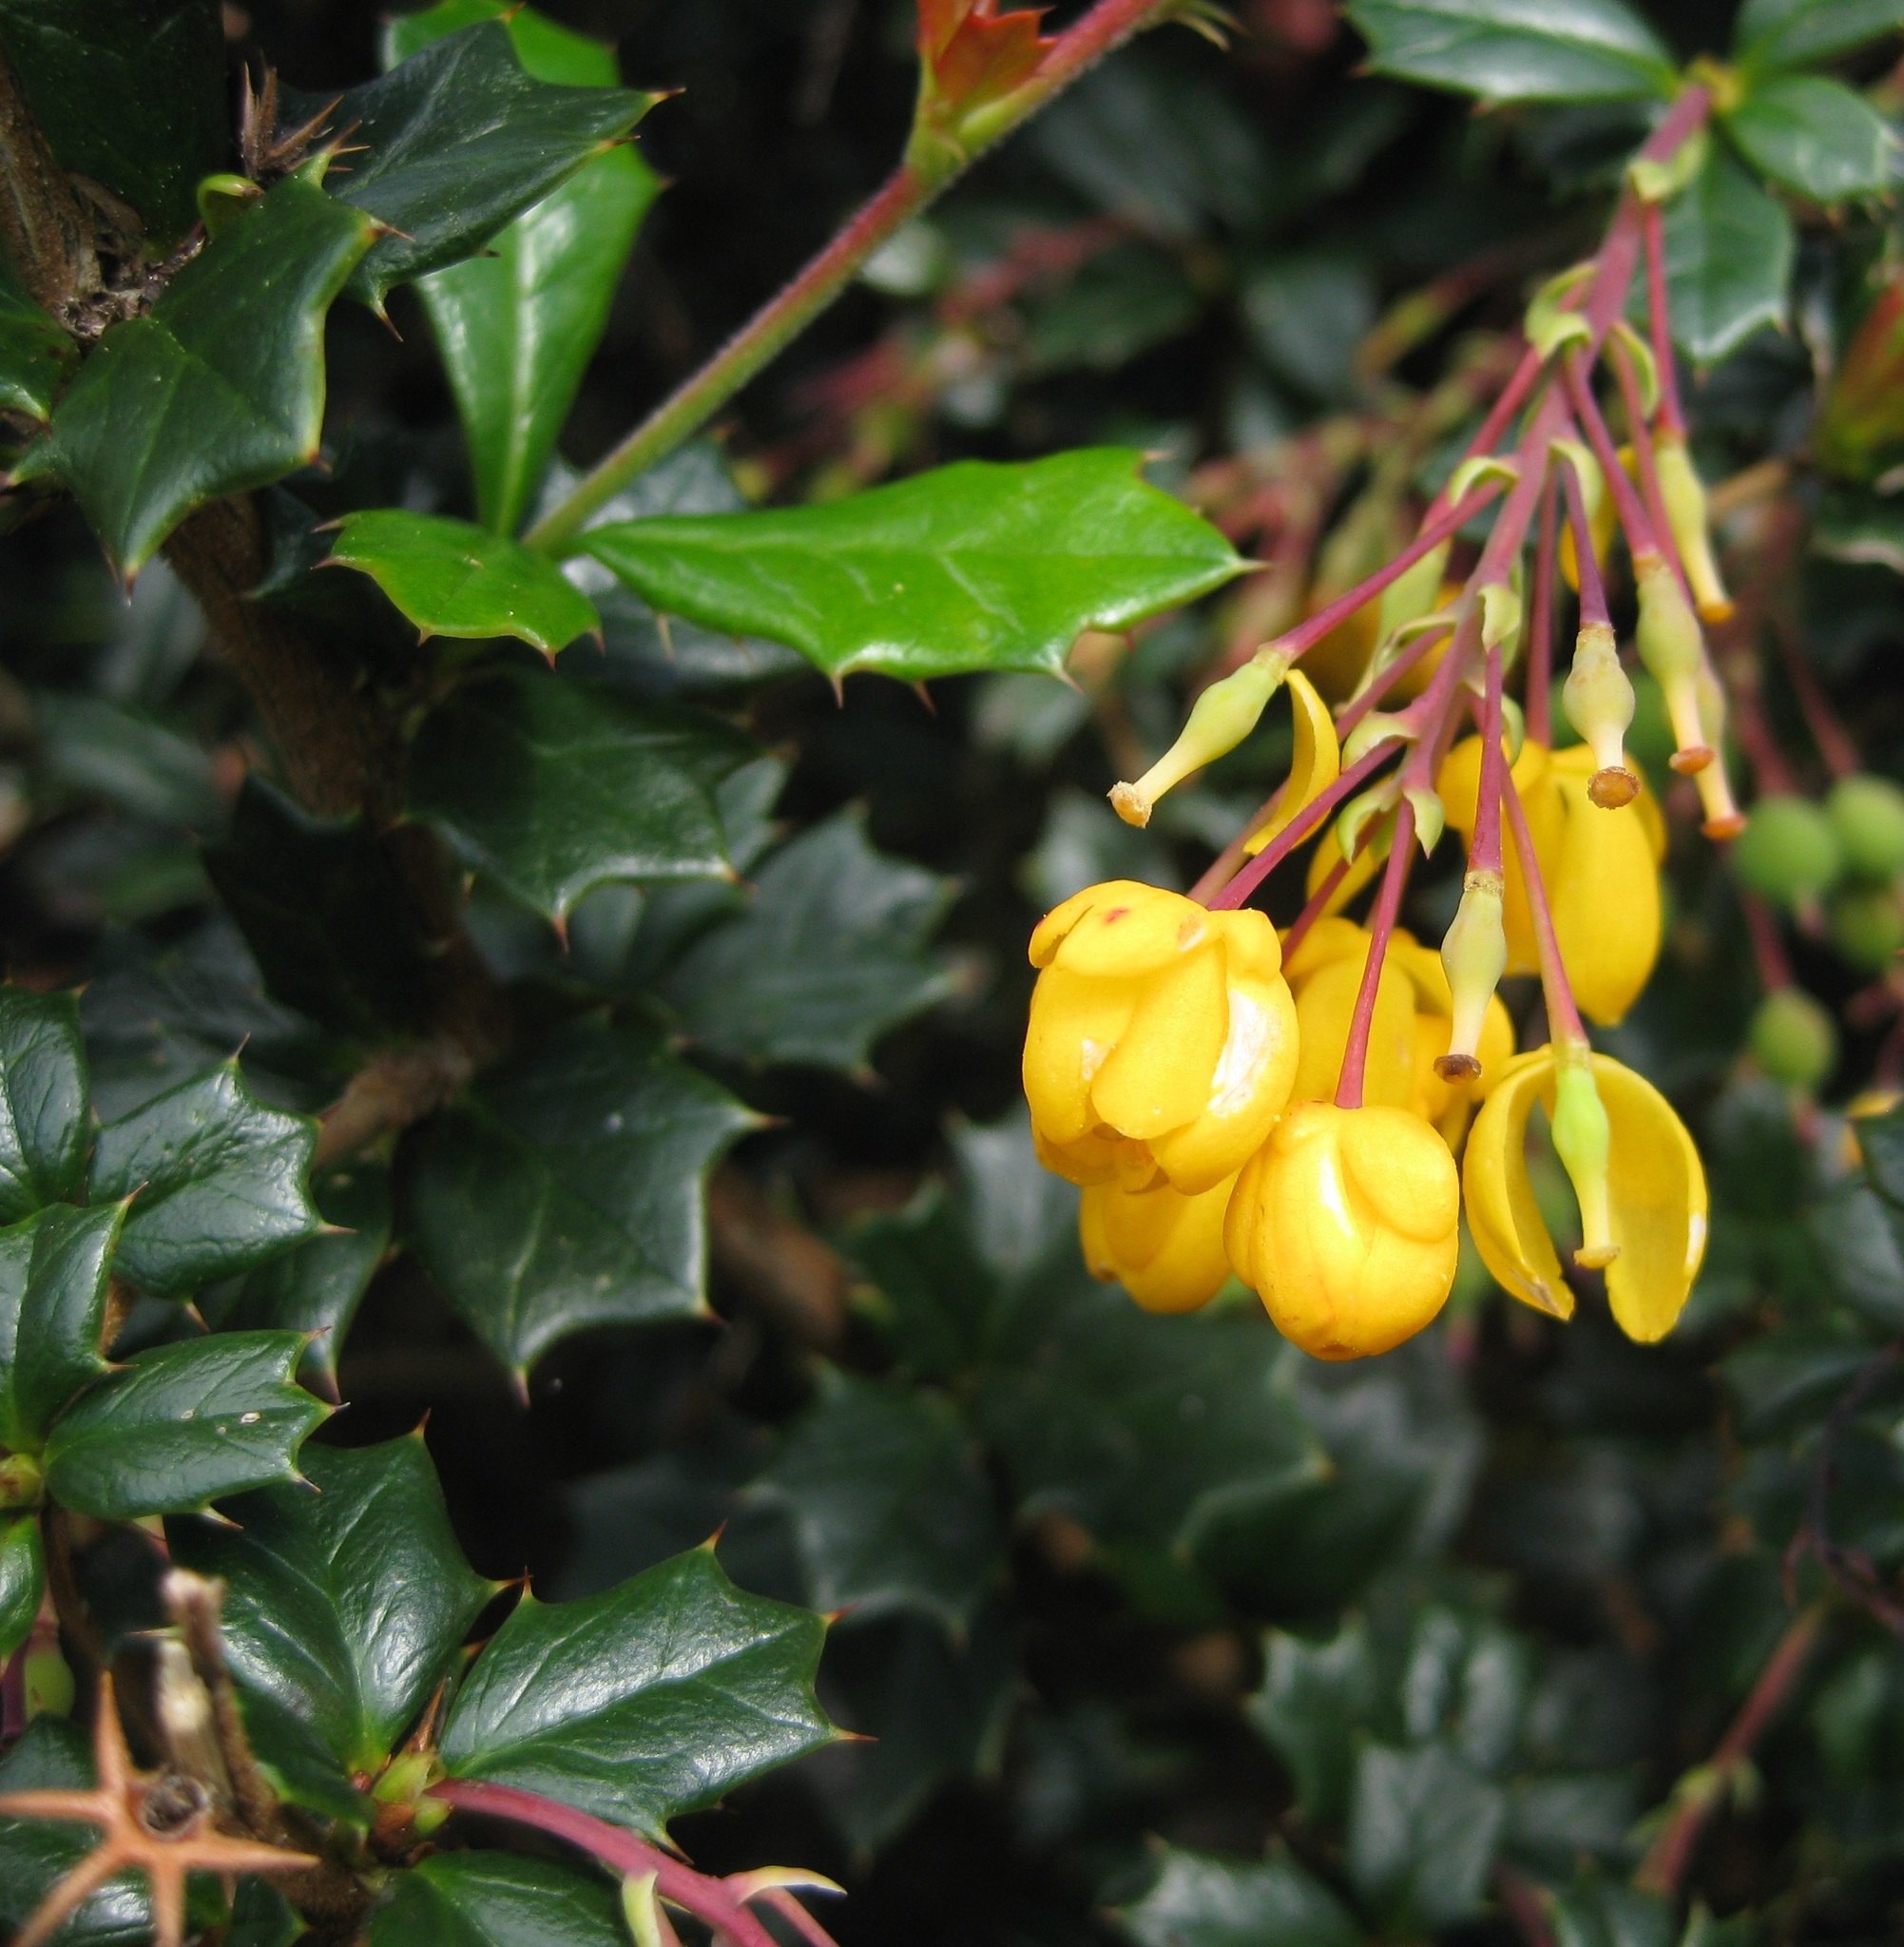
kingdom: Plantae
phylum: Tracheophyta
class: Magnoliopsida
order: Ranunculales
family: Berberidaceae
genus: Berberis
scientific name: Berberis darwinii
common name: Darwin's barberry
